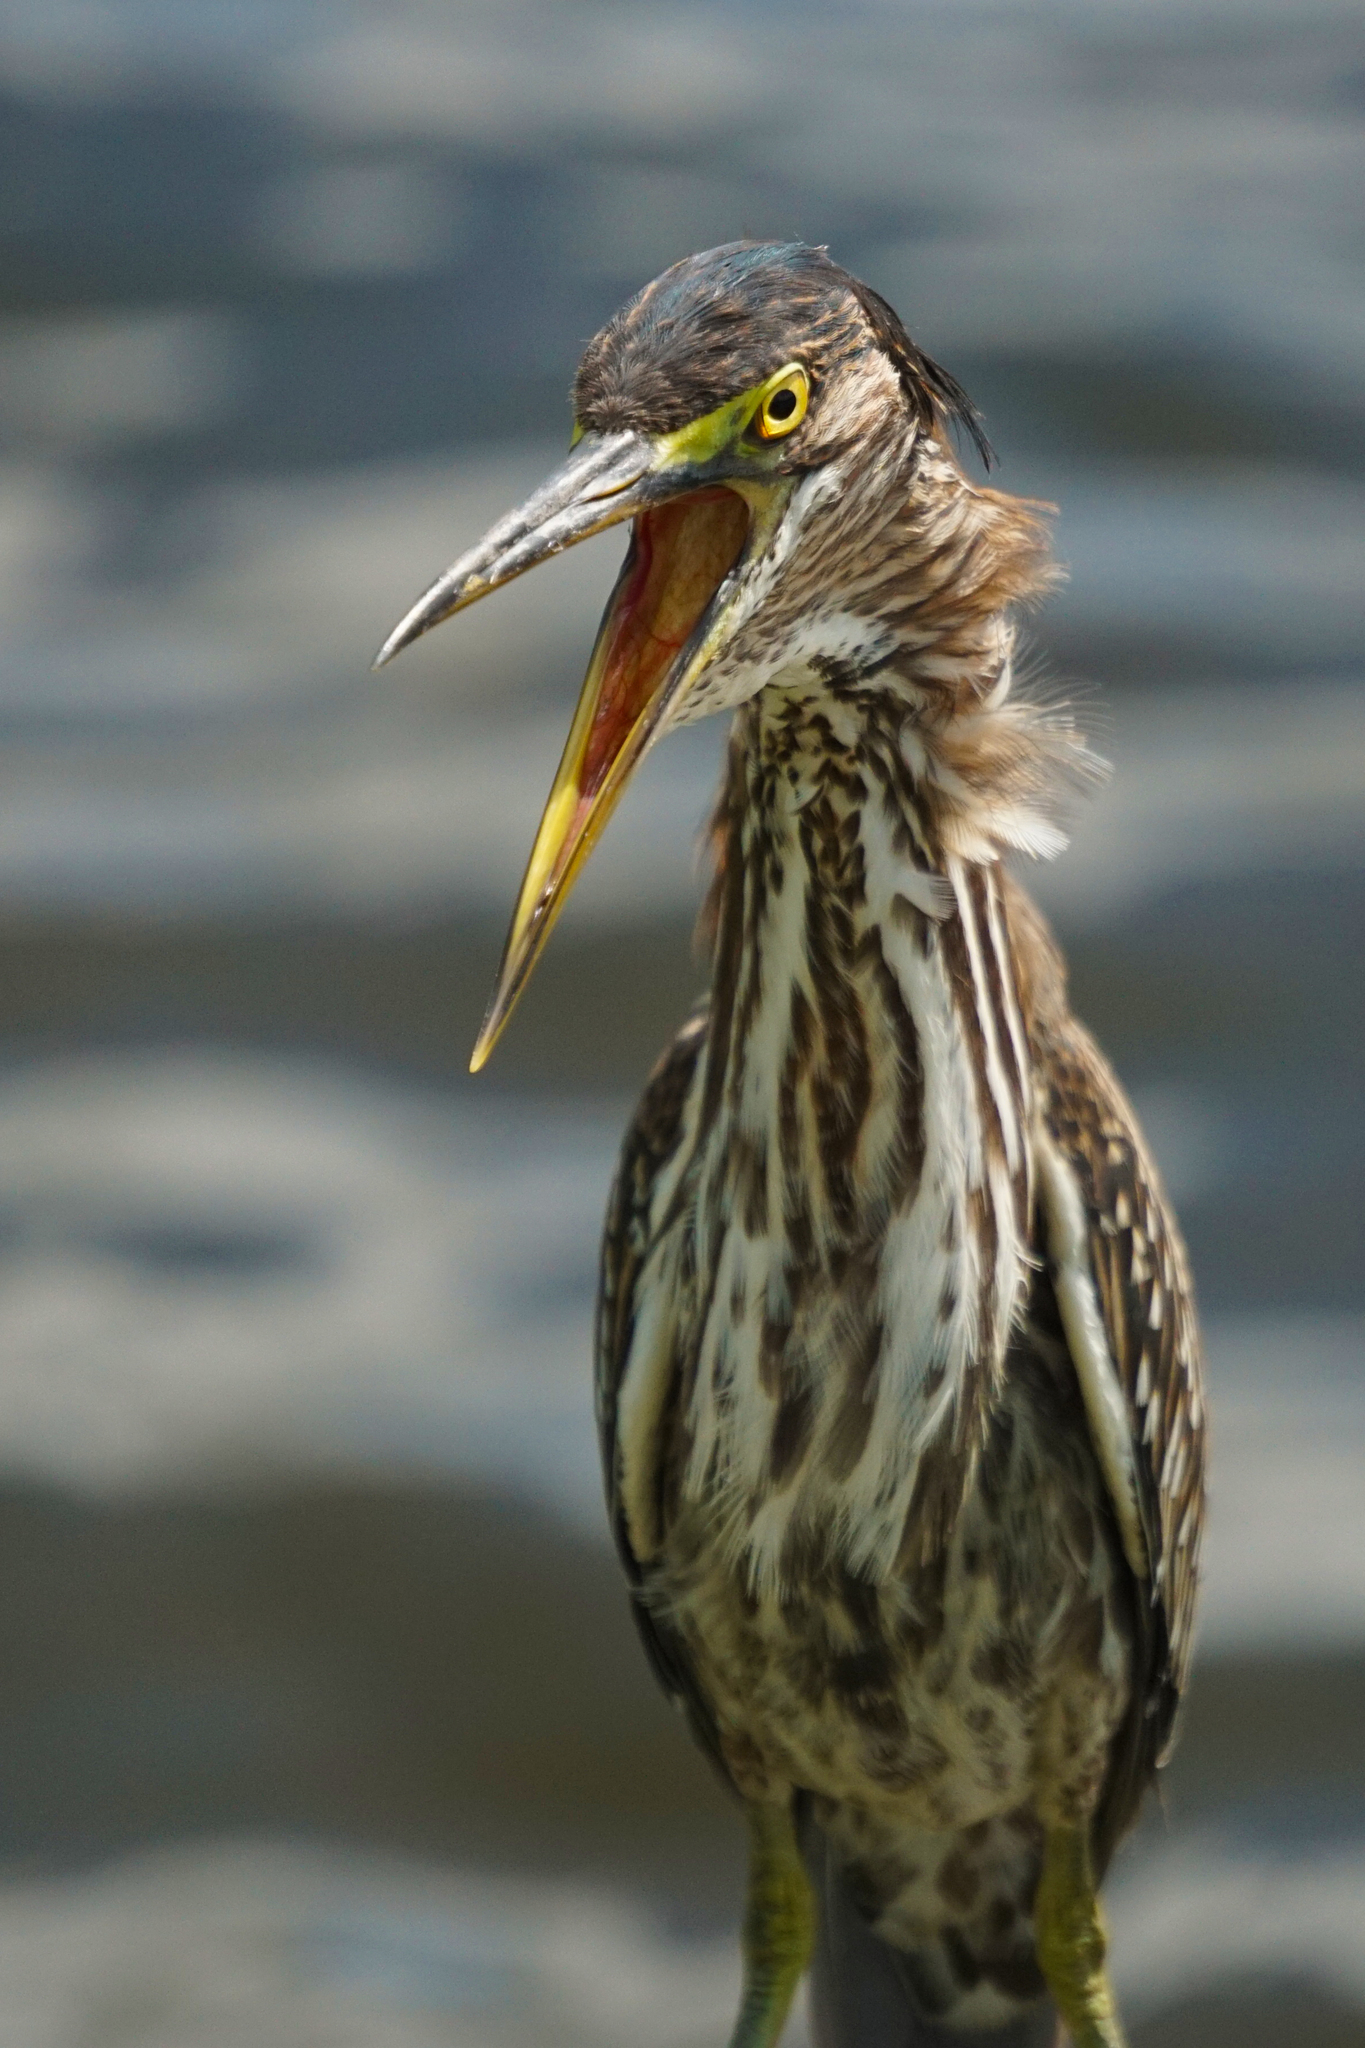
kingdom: Animalia
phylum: Chordata
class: Aves
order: Pelecaniformes
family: Ardeidae
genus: Butorides
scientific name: Butorides virescens
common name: Green heron
